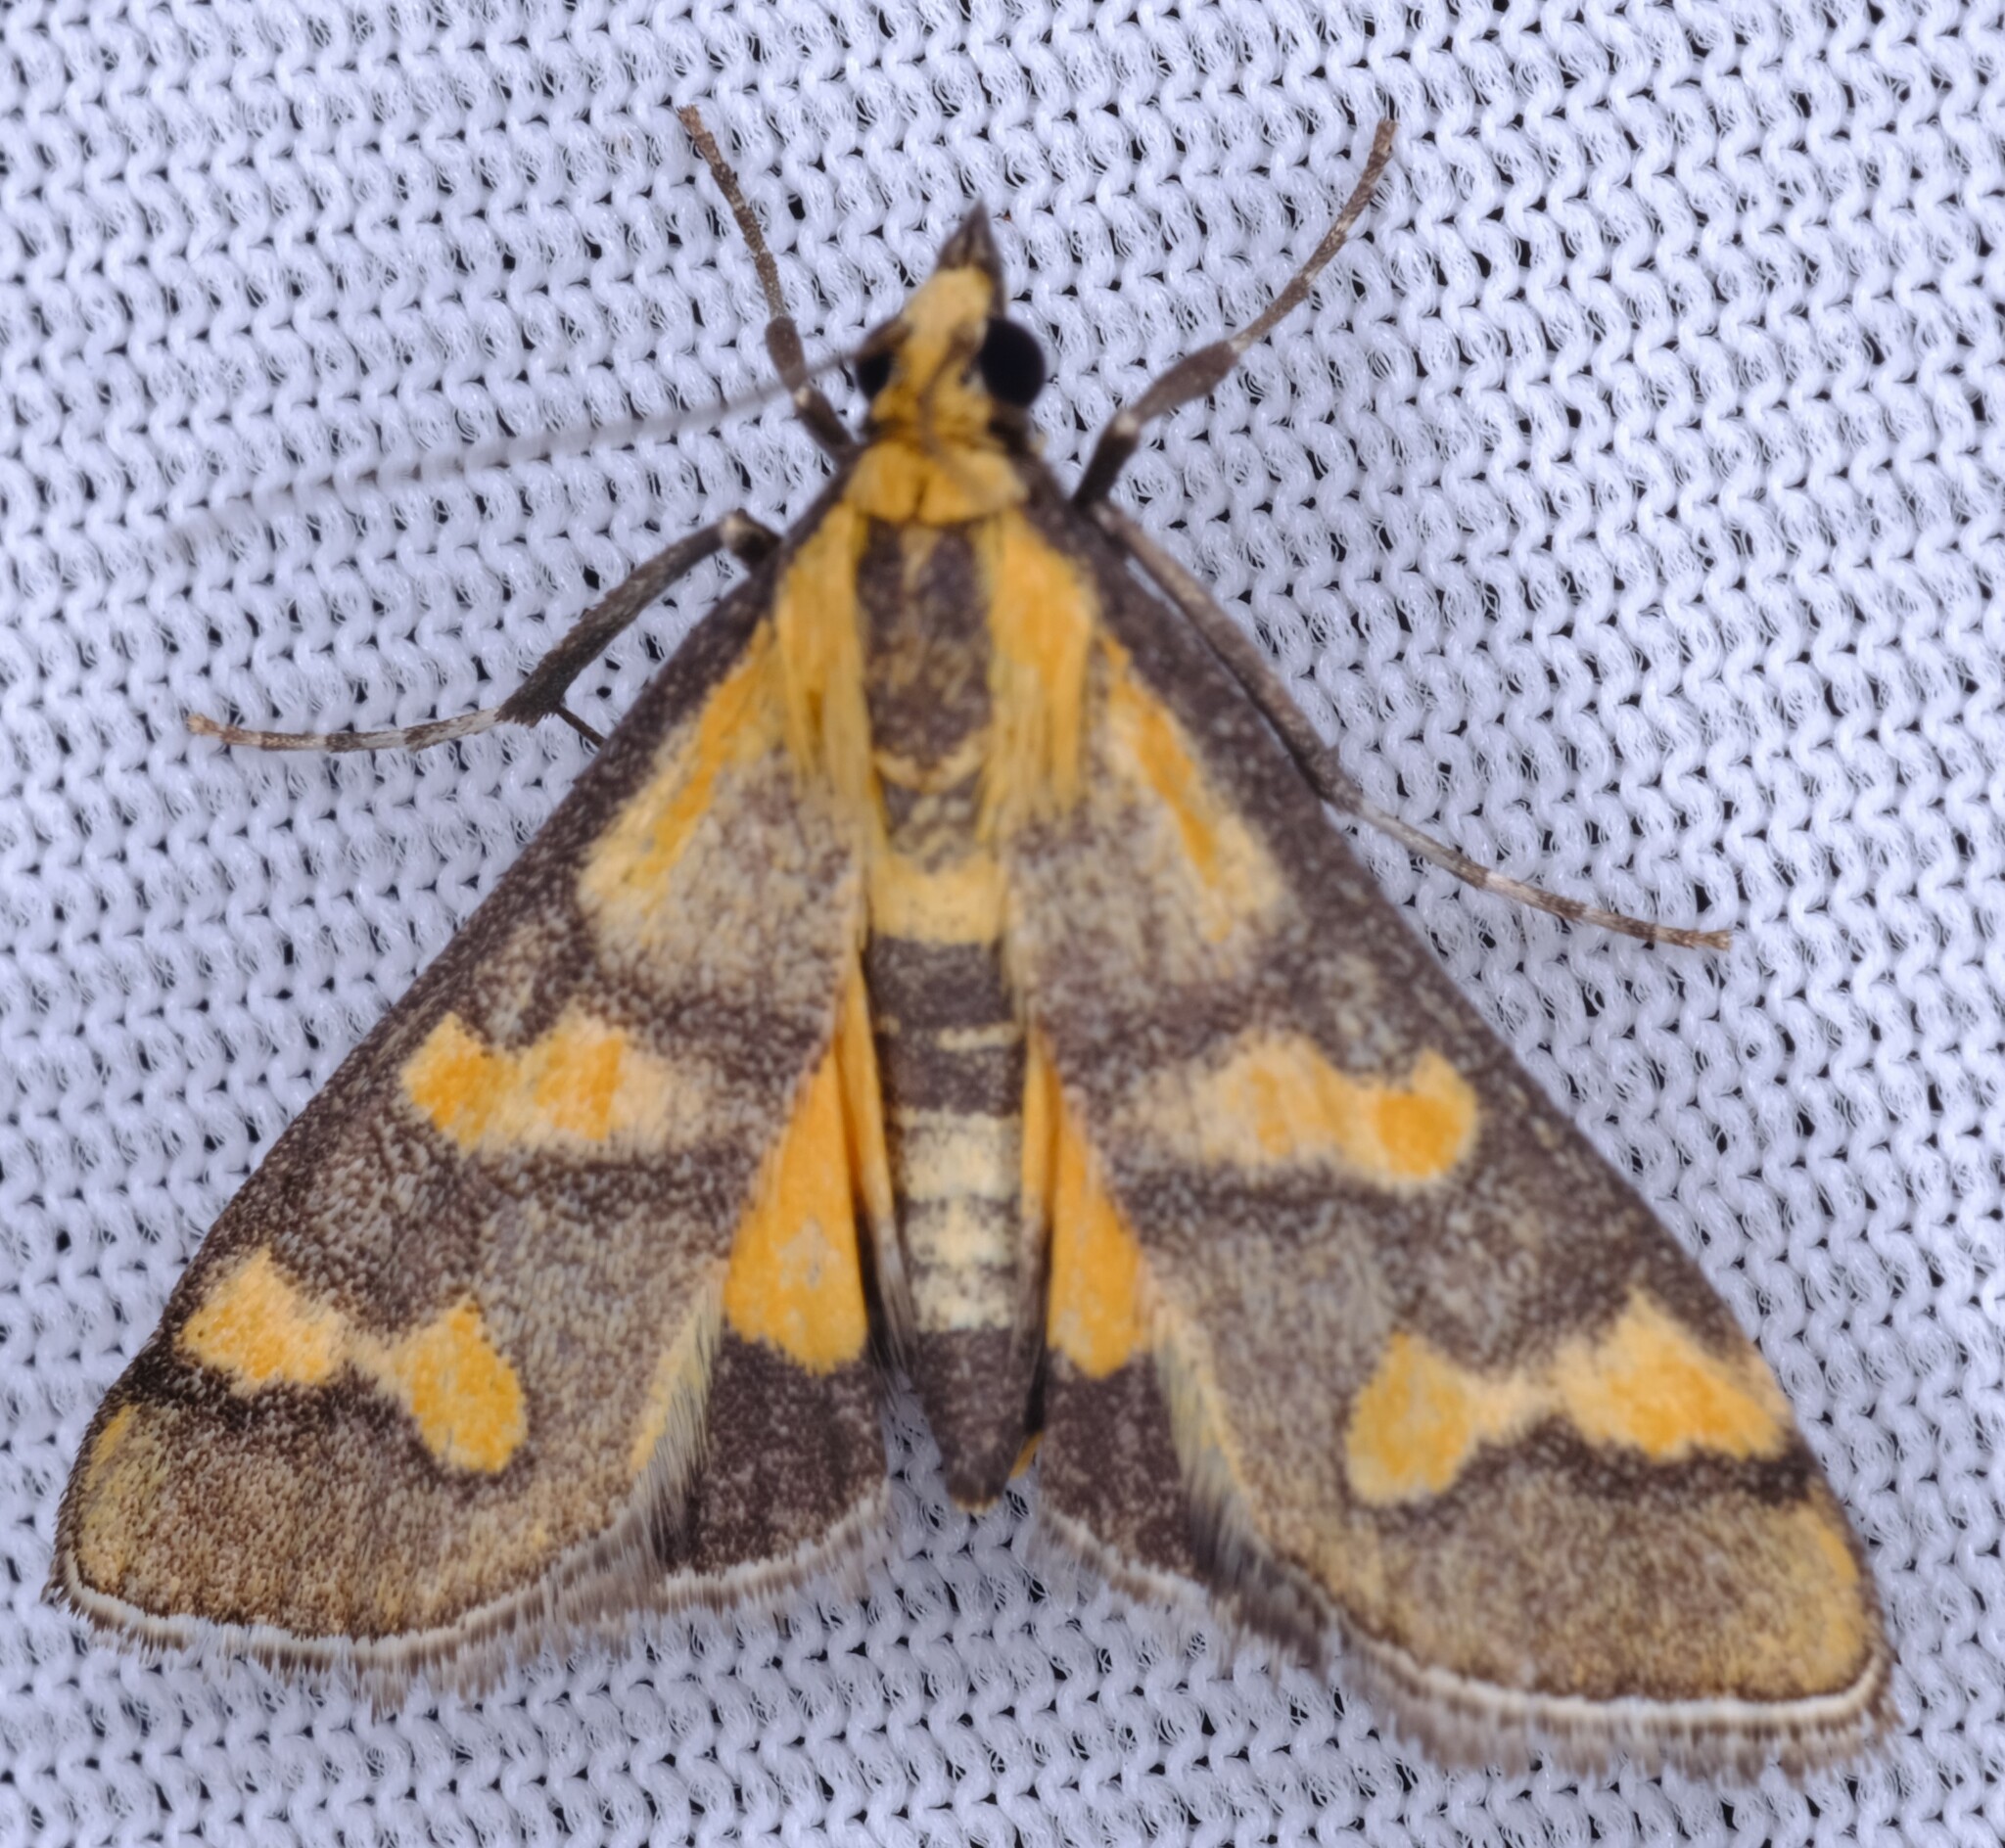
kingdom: Animalia
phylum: Arthropoda
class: Insecta
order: Lepidoptera
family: Crambidae
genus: Metallarcha
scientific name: Metallarcha diplochrysa
